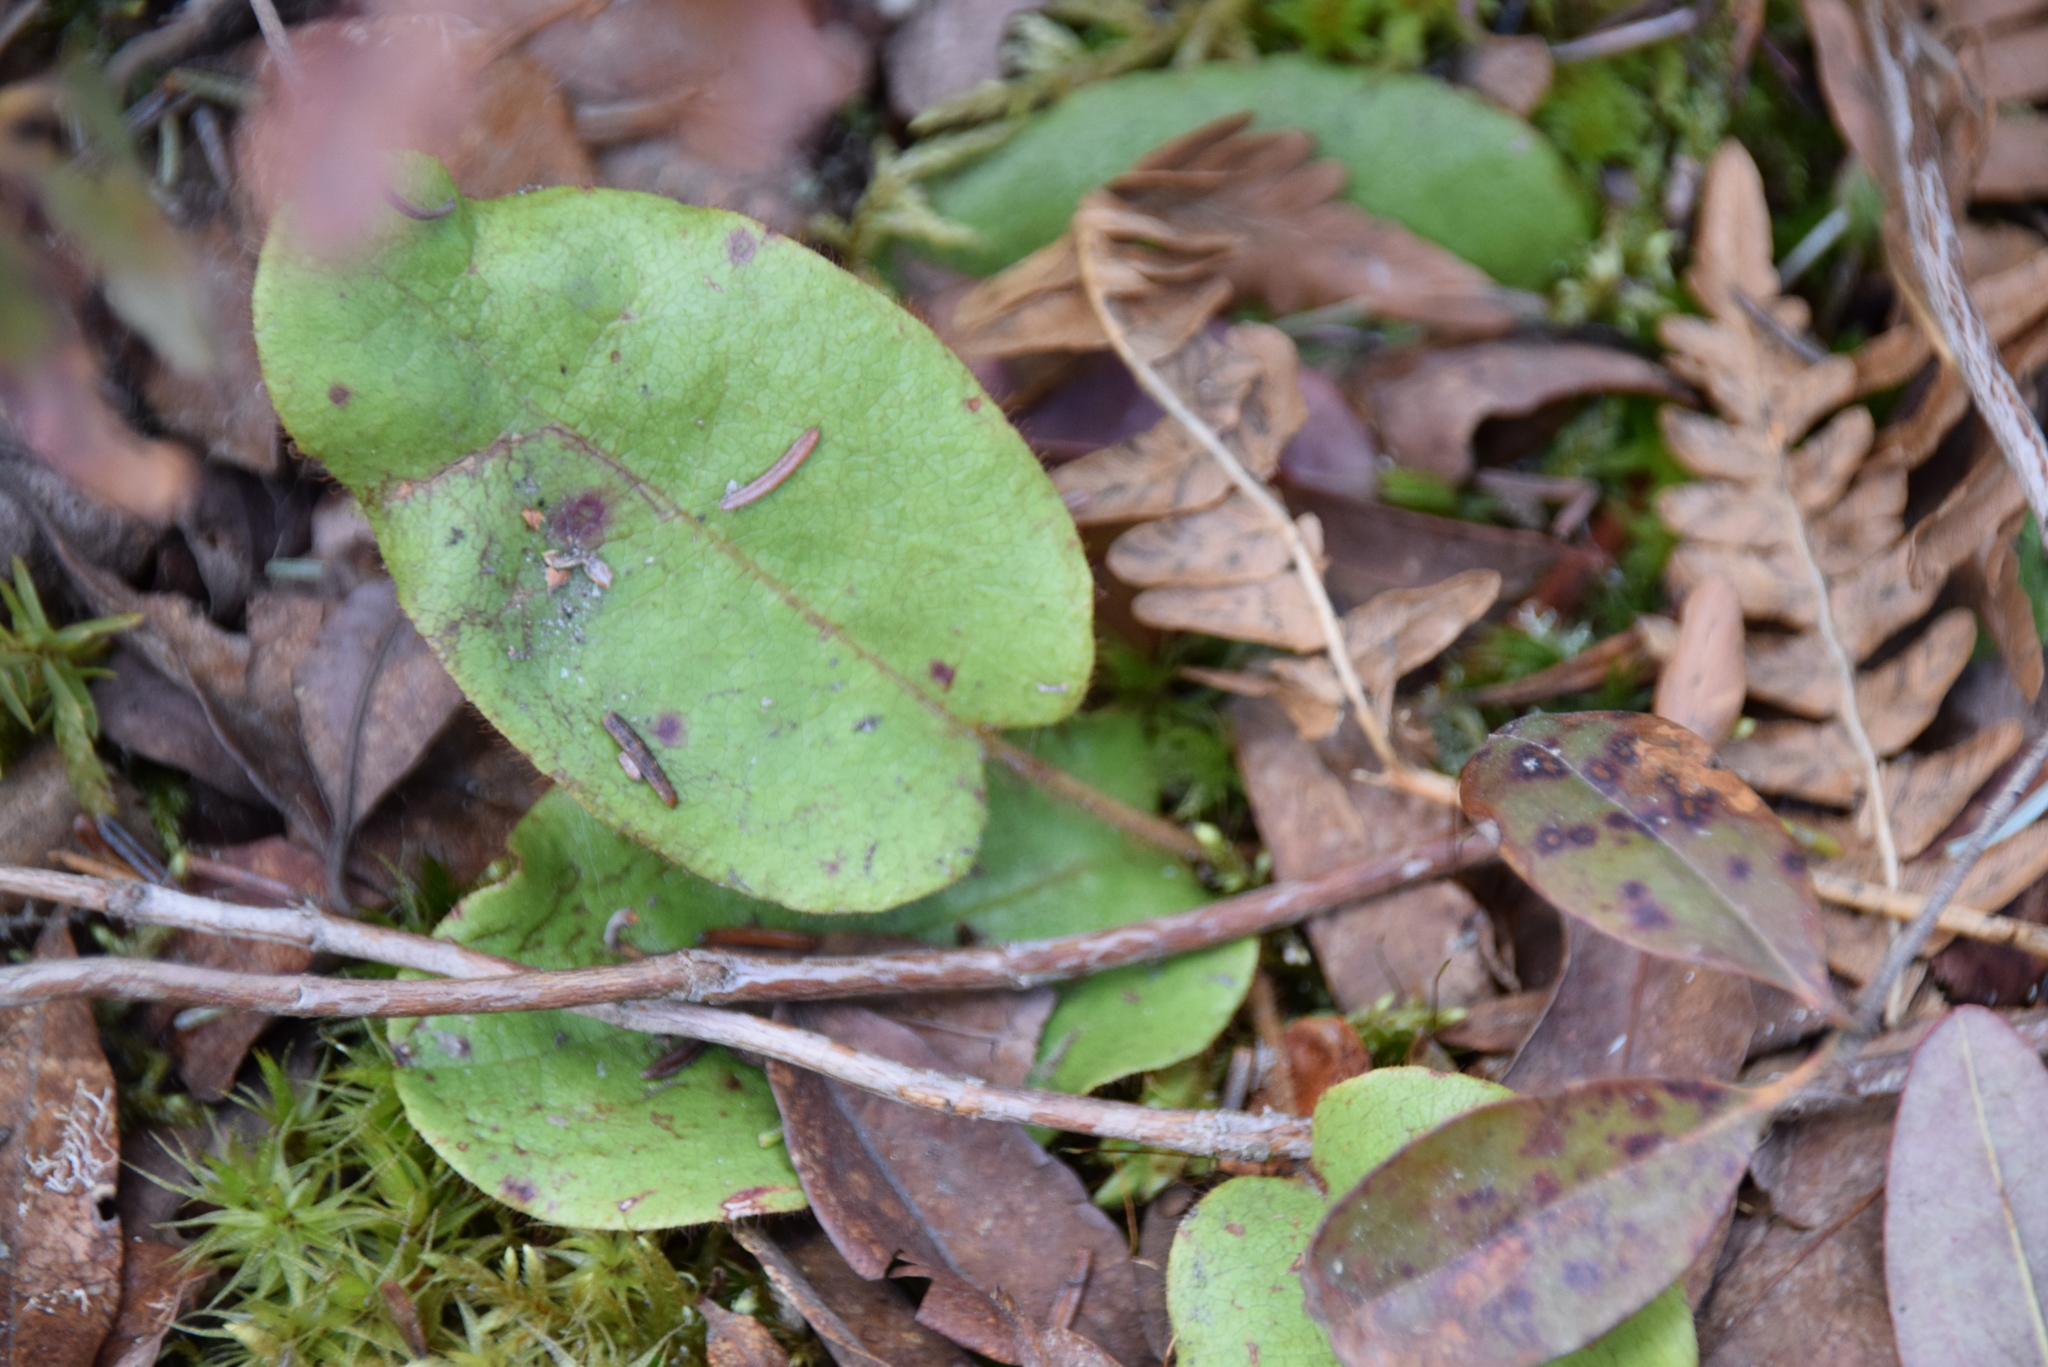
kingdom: Plantae
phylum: Tracheophyta
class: Magnoliopsida
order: Ericales
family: Ericaceae
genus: Epigaea
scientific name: Epigaea repens
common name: Gravelroot
